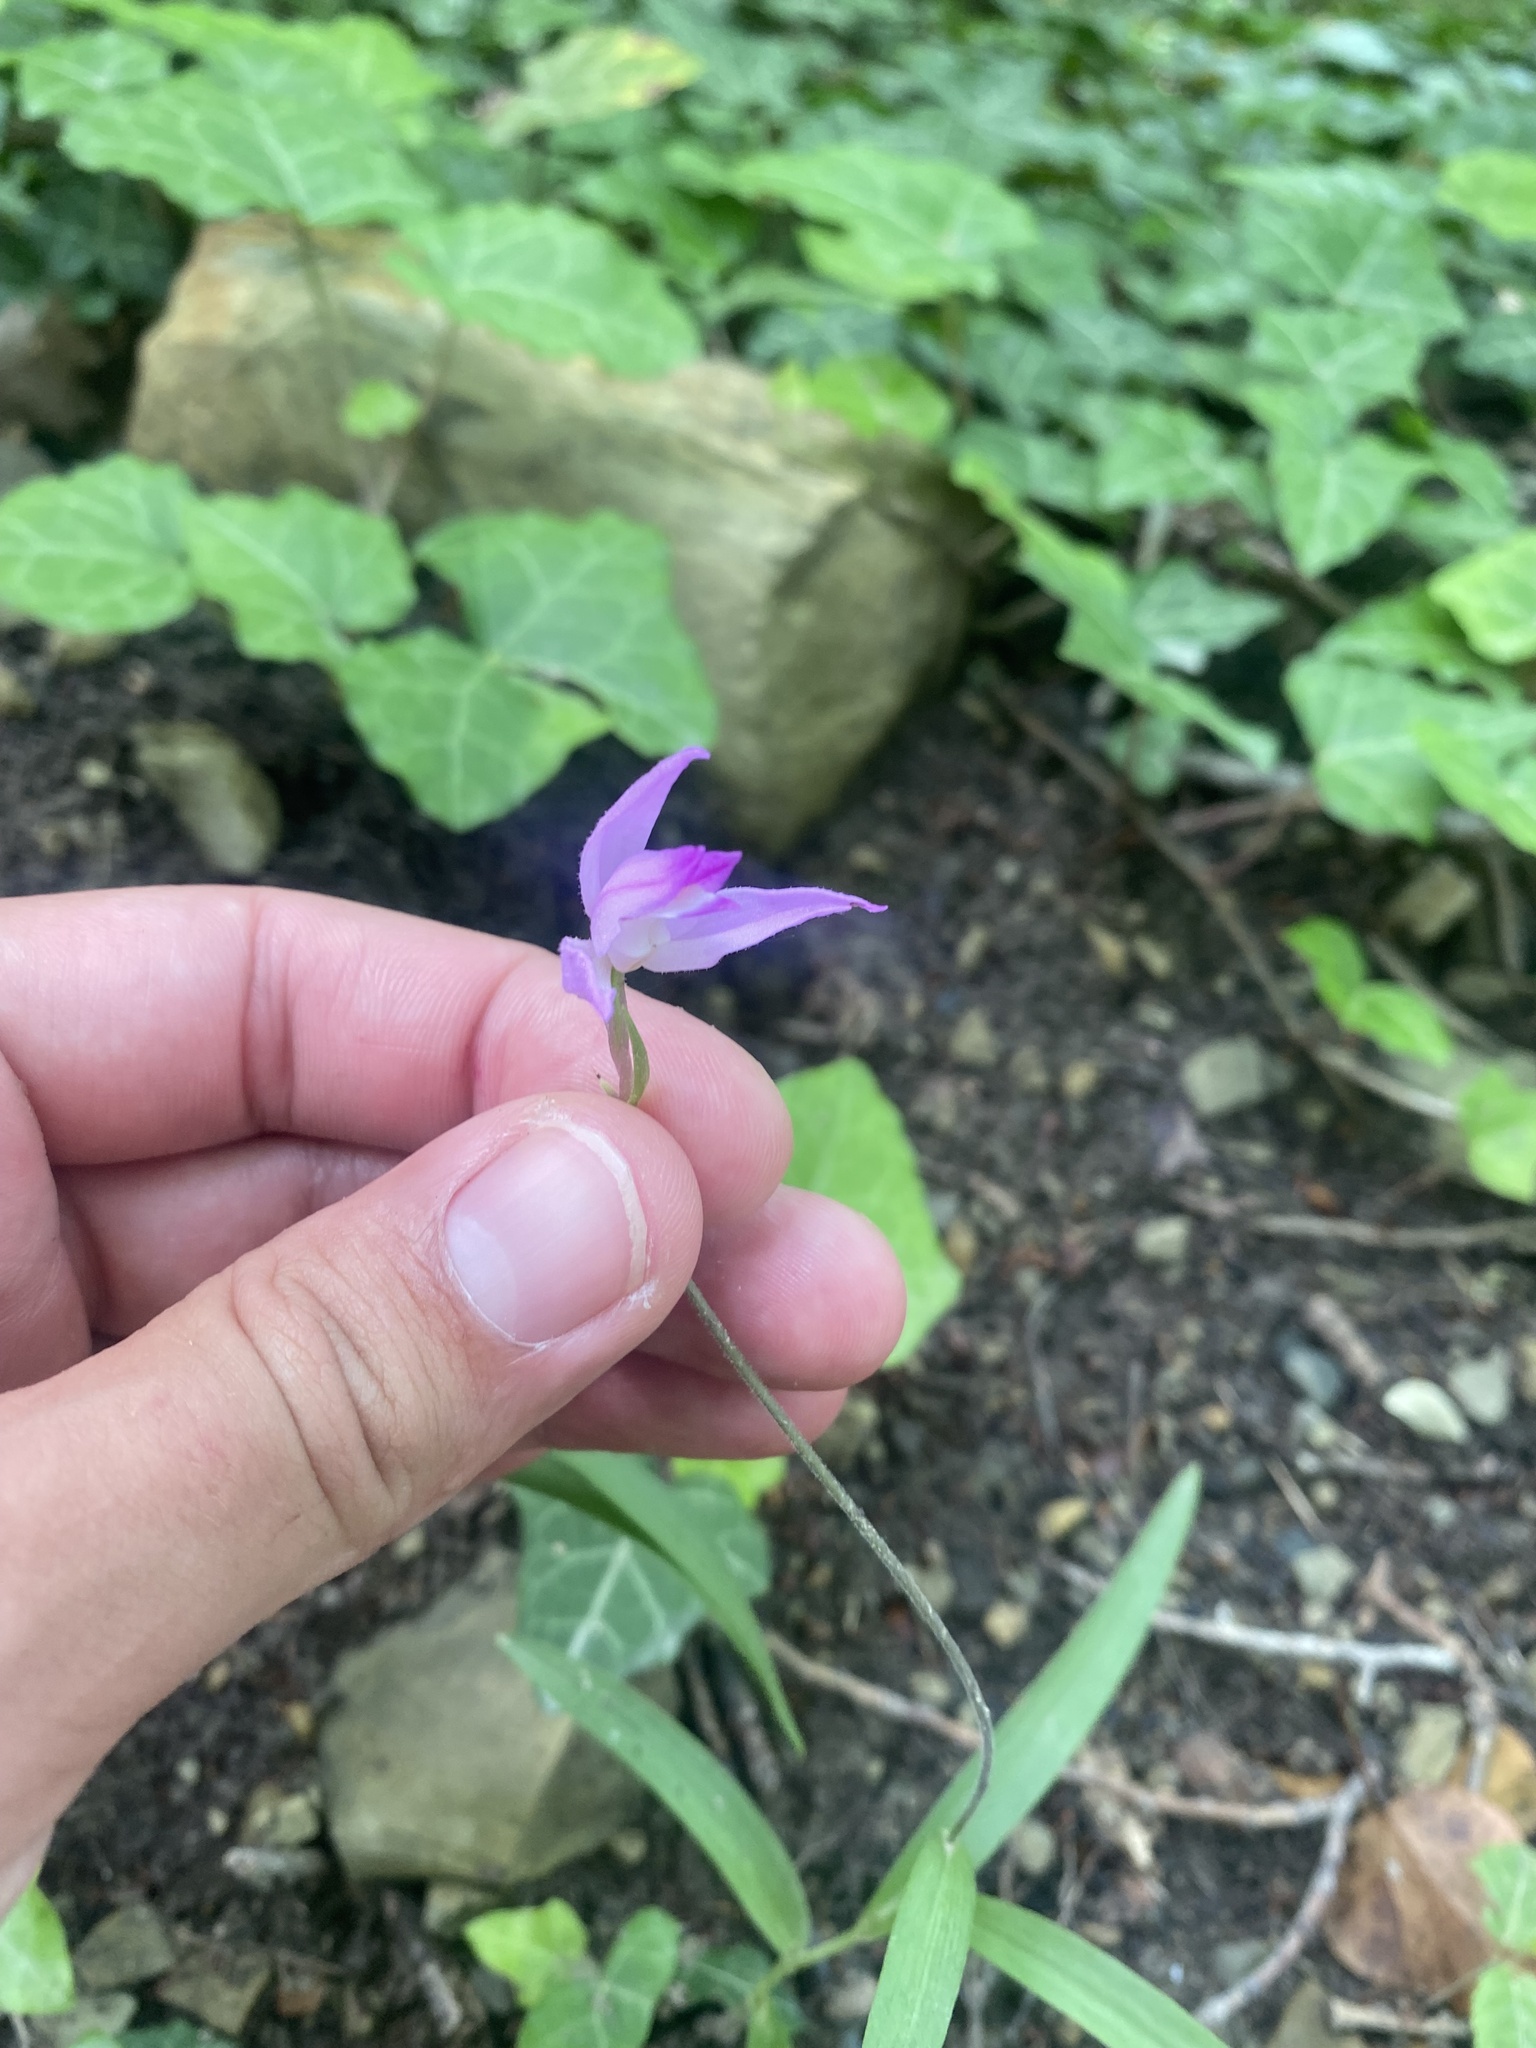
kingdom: Plantae
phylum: Tracheophyta
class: Liliopsida
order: Asparagales
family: Orchidaceae
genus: Cephalanthera
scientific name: Cephalanthera rubra
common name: Red helleborine
